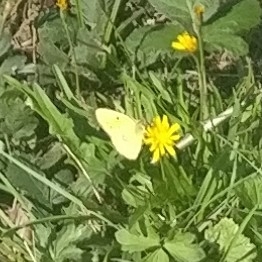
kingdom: Animalia
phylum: Arthropoda
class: Insecta
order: Lepidoptera
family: Pieridae
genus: Colias
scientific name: Colias croceus
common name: Clouded yellow
